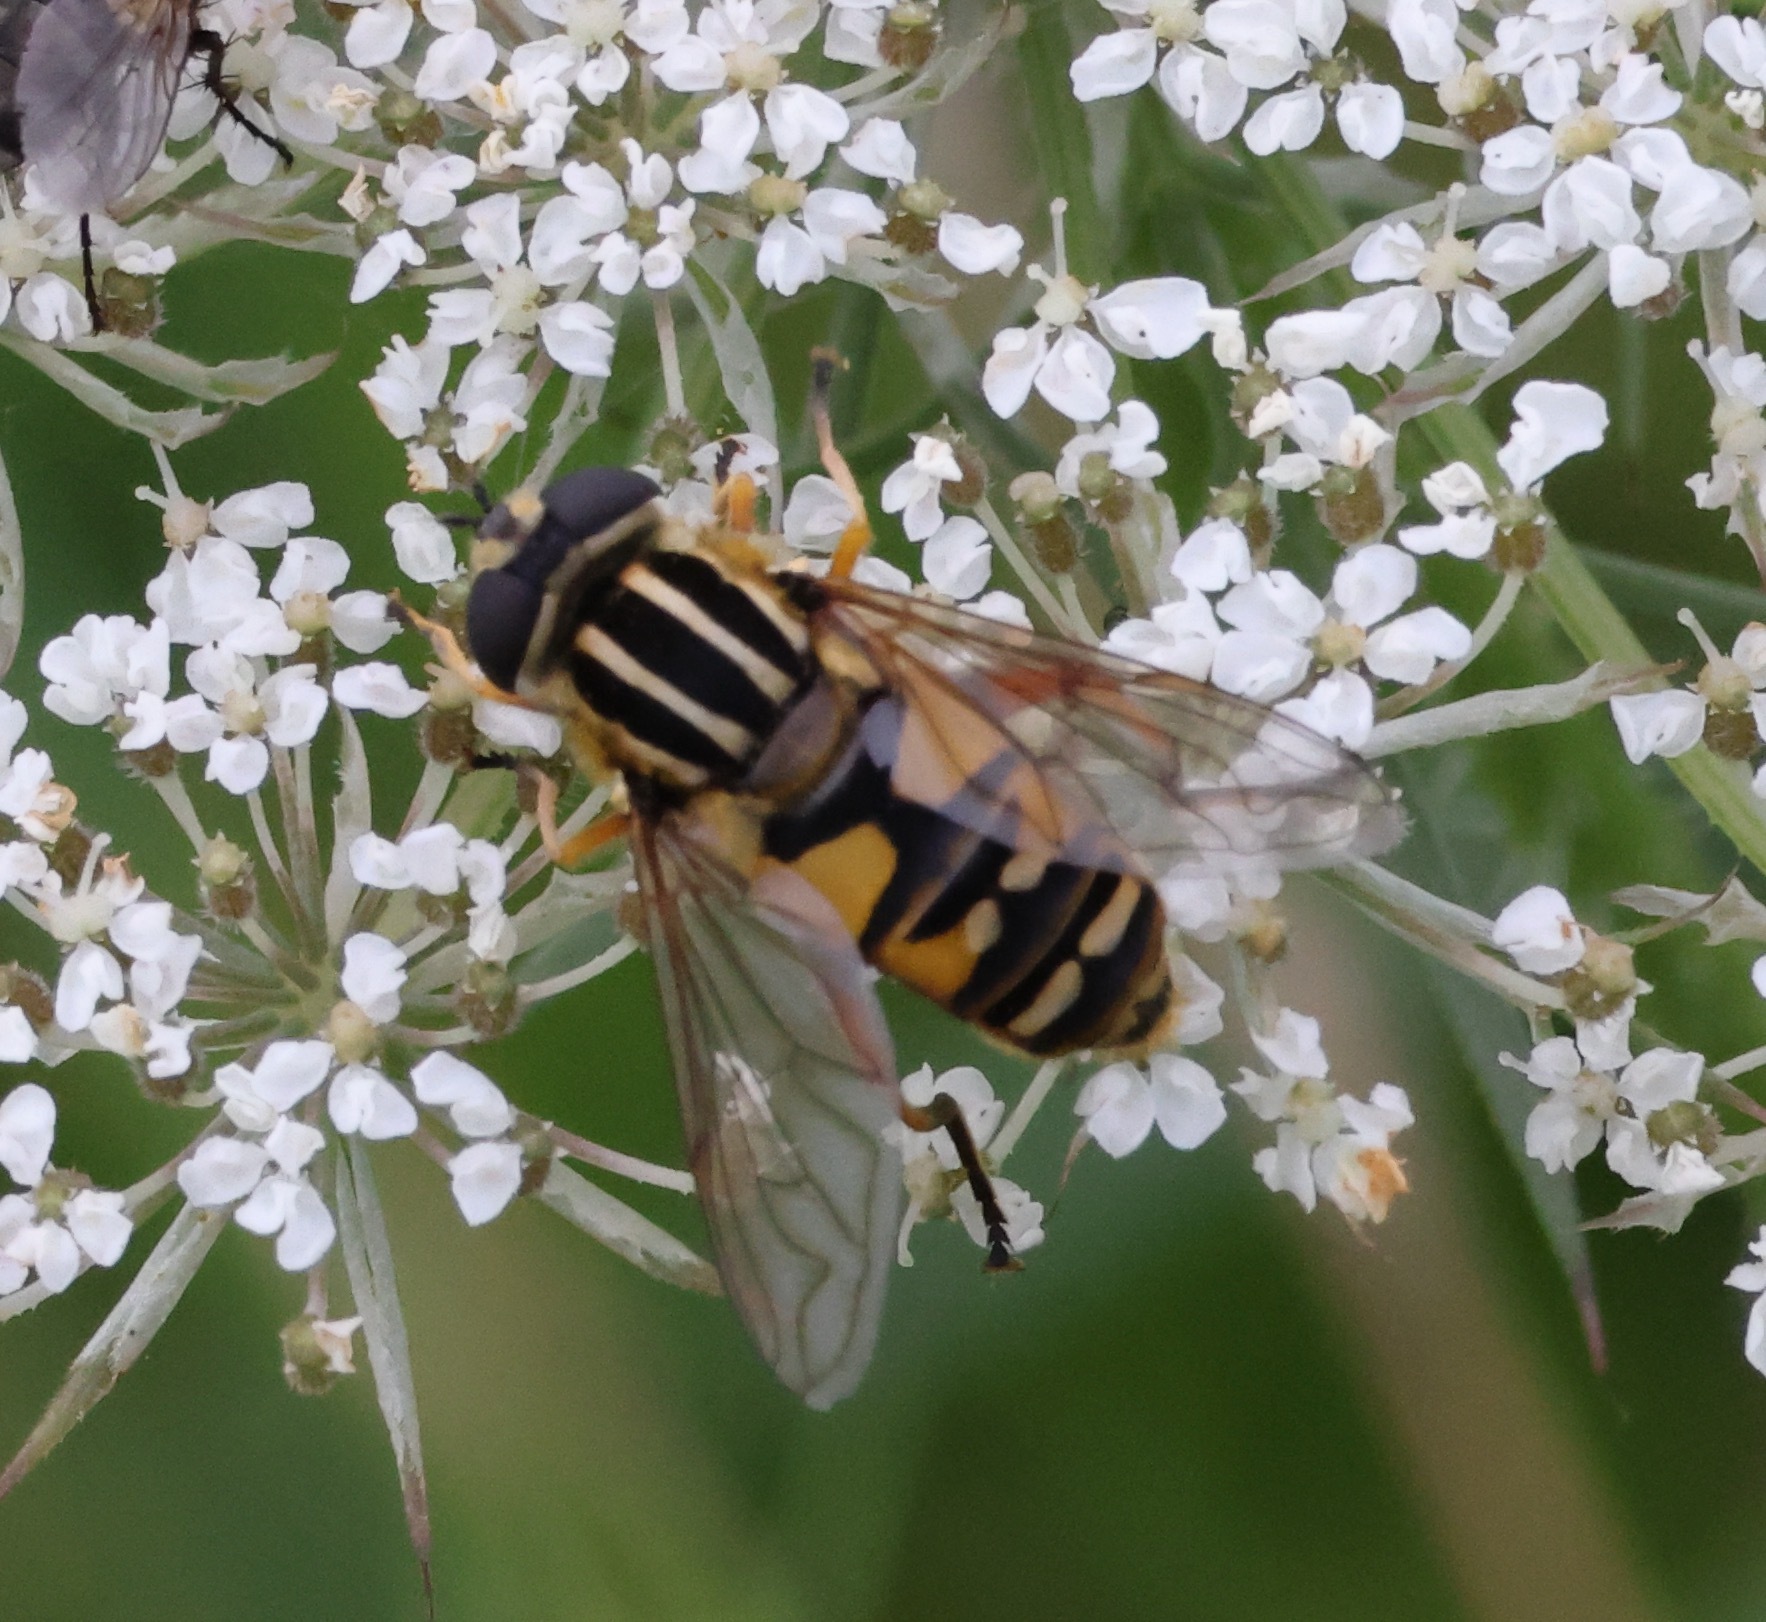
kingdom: Animalia
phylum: Arthropoda
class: Insecta
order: Diptera
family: Syrphidae
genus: Helophilus
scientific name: Helophilus pendulus
